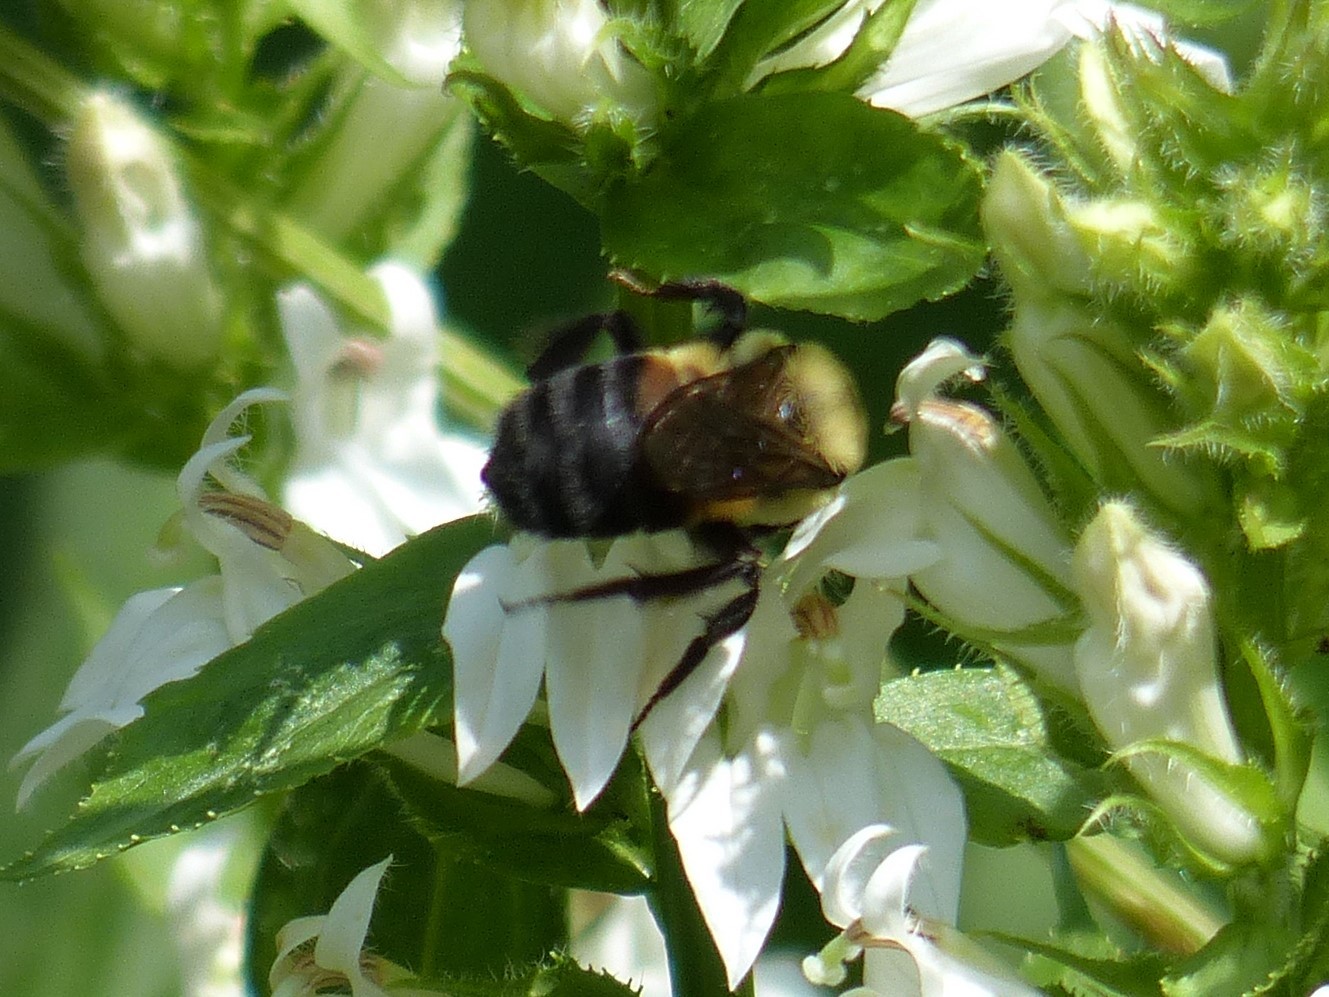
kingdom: Animalia
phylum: Arthropoda
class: Insecta
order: Hymenoptera
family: Apidae
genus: Bombus
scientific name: Bombus griseocollis
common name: Brown-belted bumble bee
